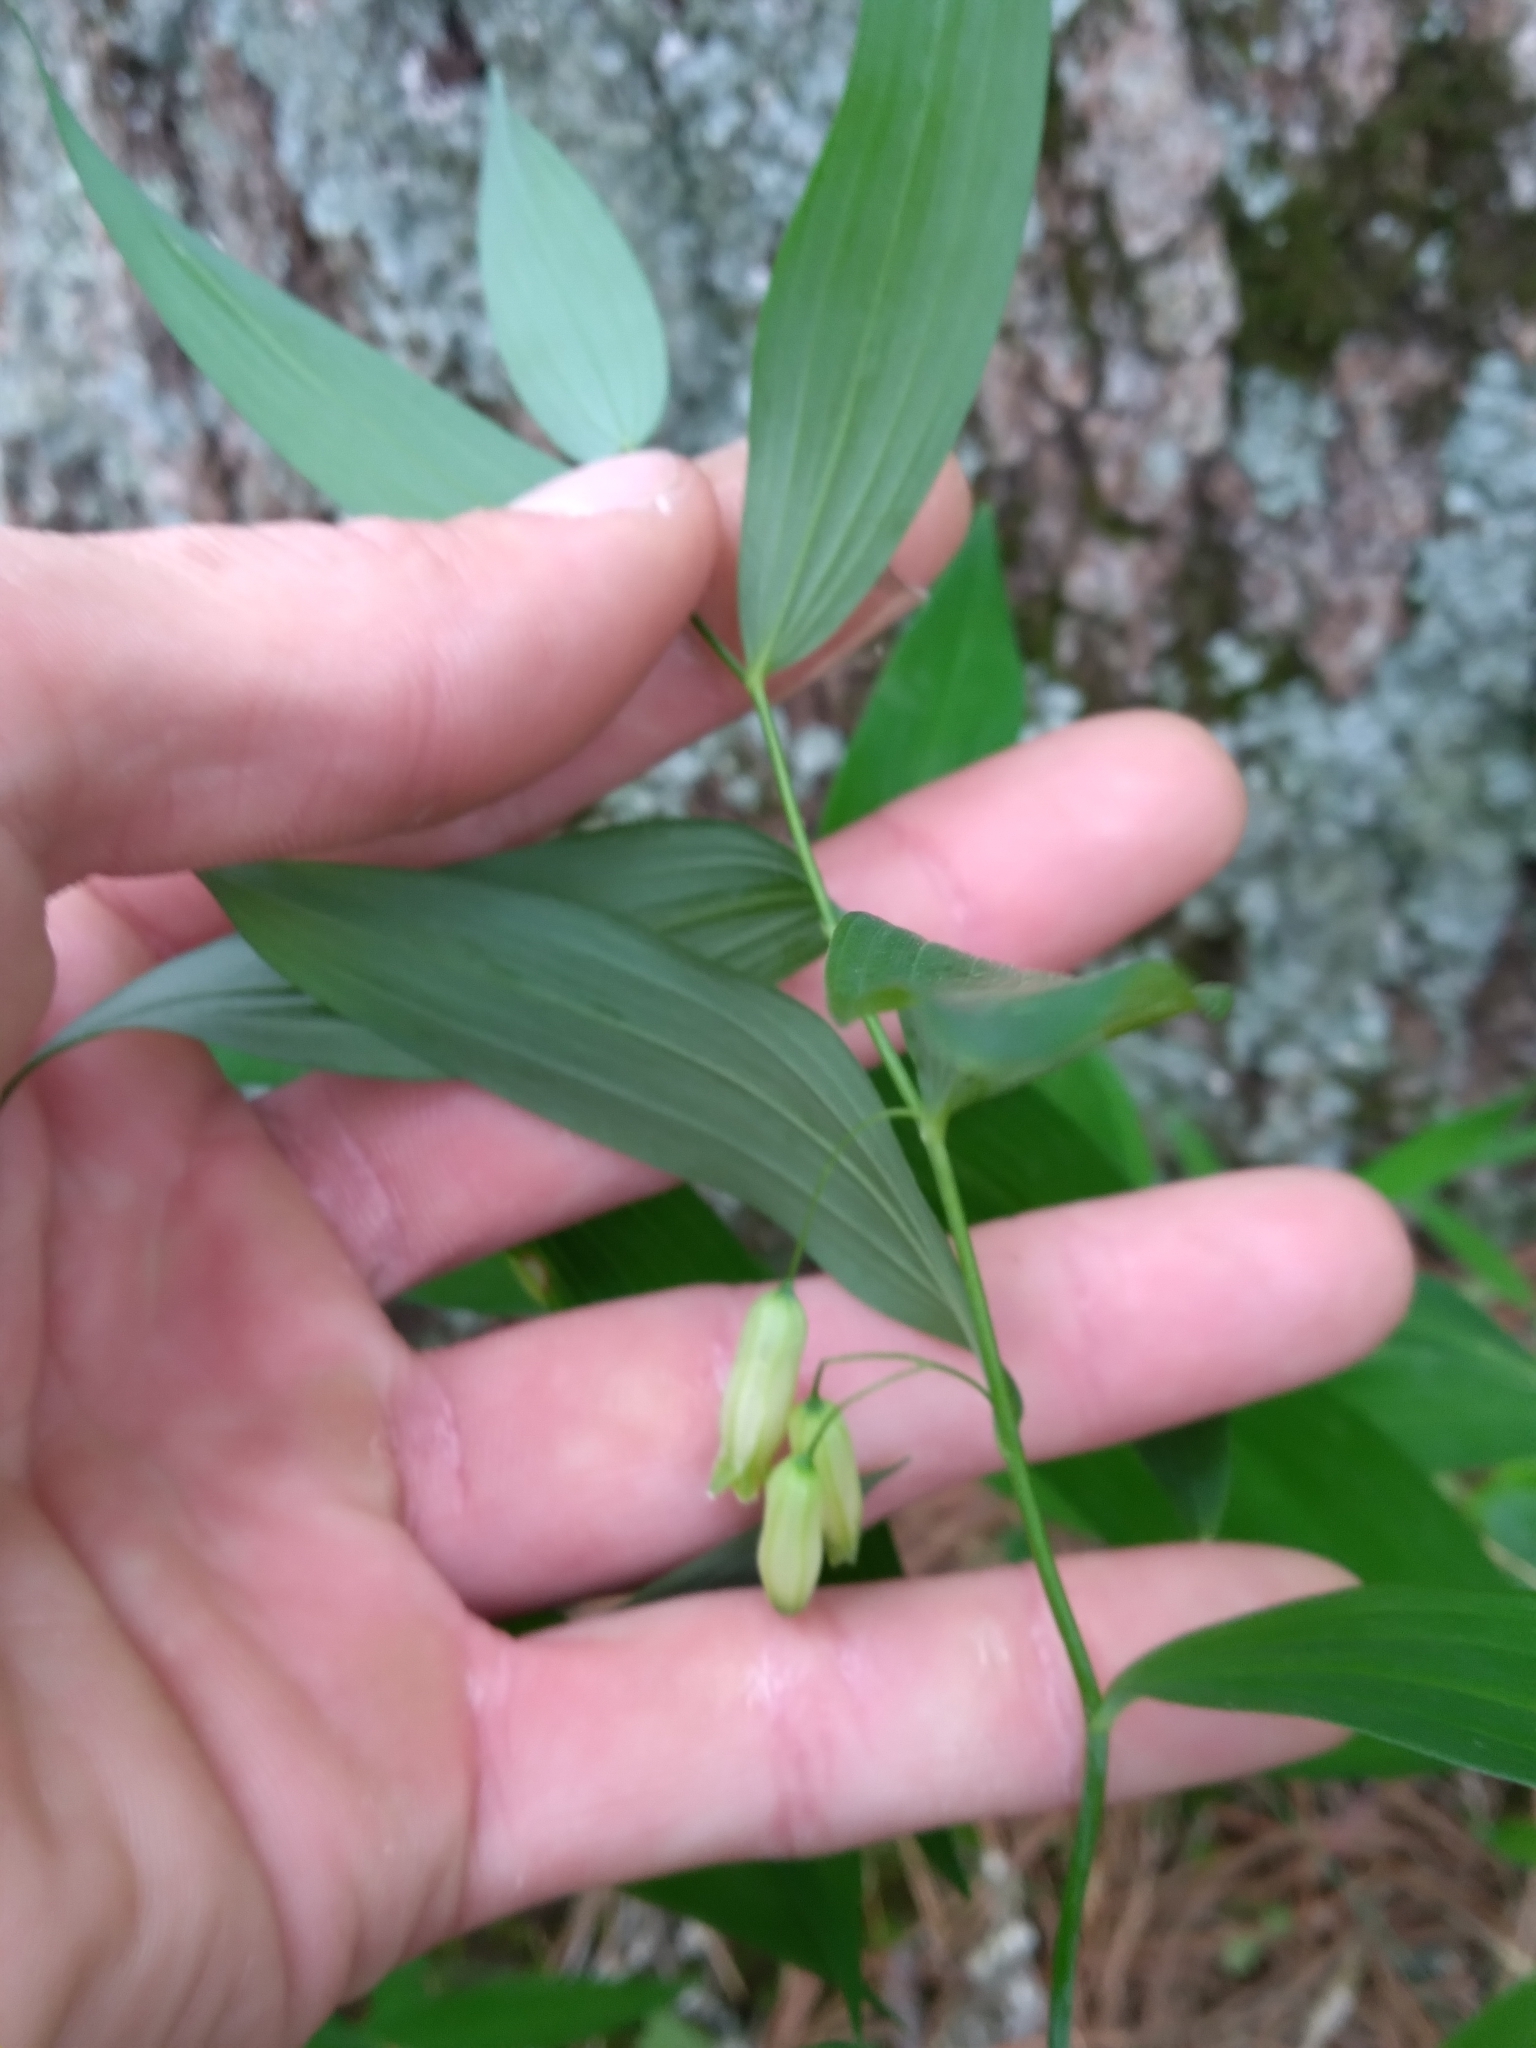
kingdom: Plantae
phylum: Tracheophyta
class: Liliopsida
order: Asparagales
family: Asparagaceae
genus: Polygonatum
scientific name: Polygonatum biflorum
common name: American solomon's-seal
